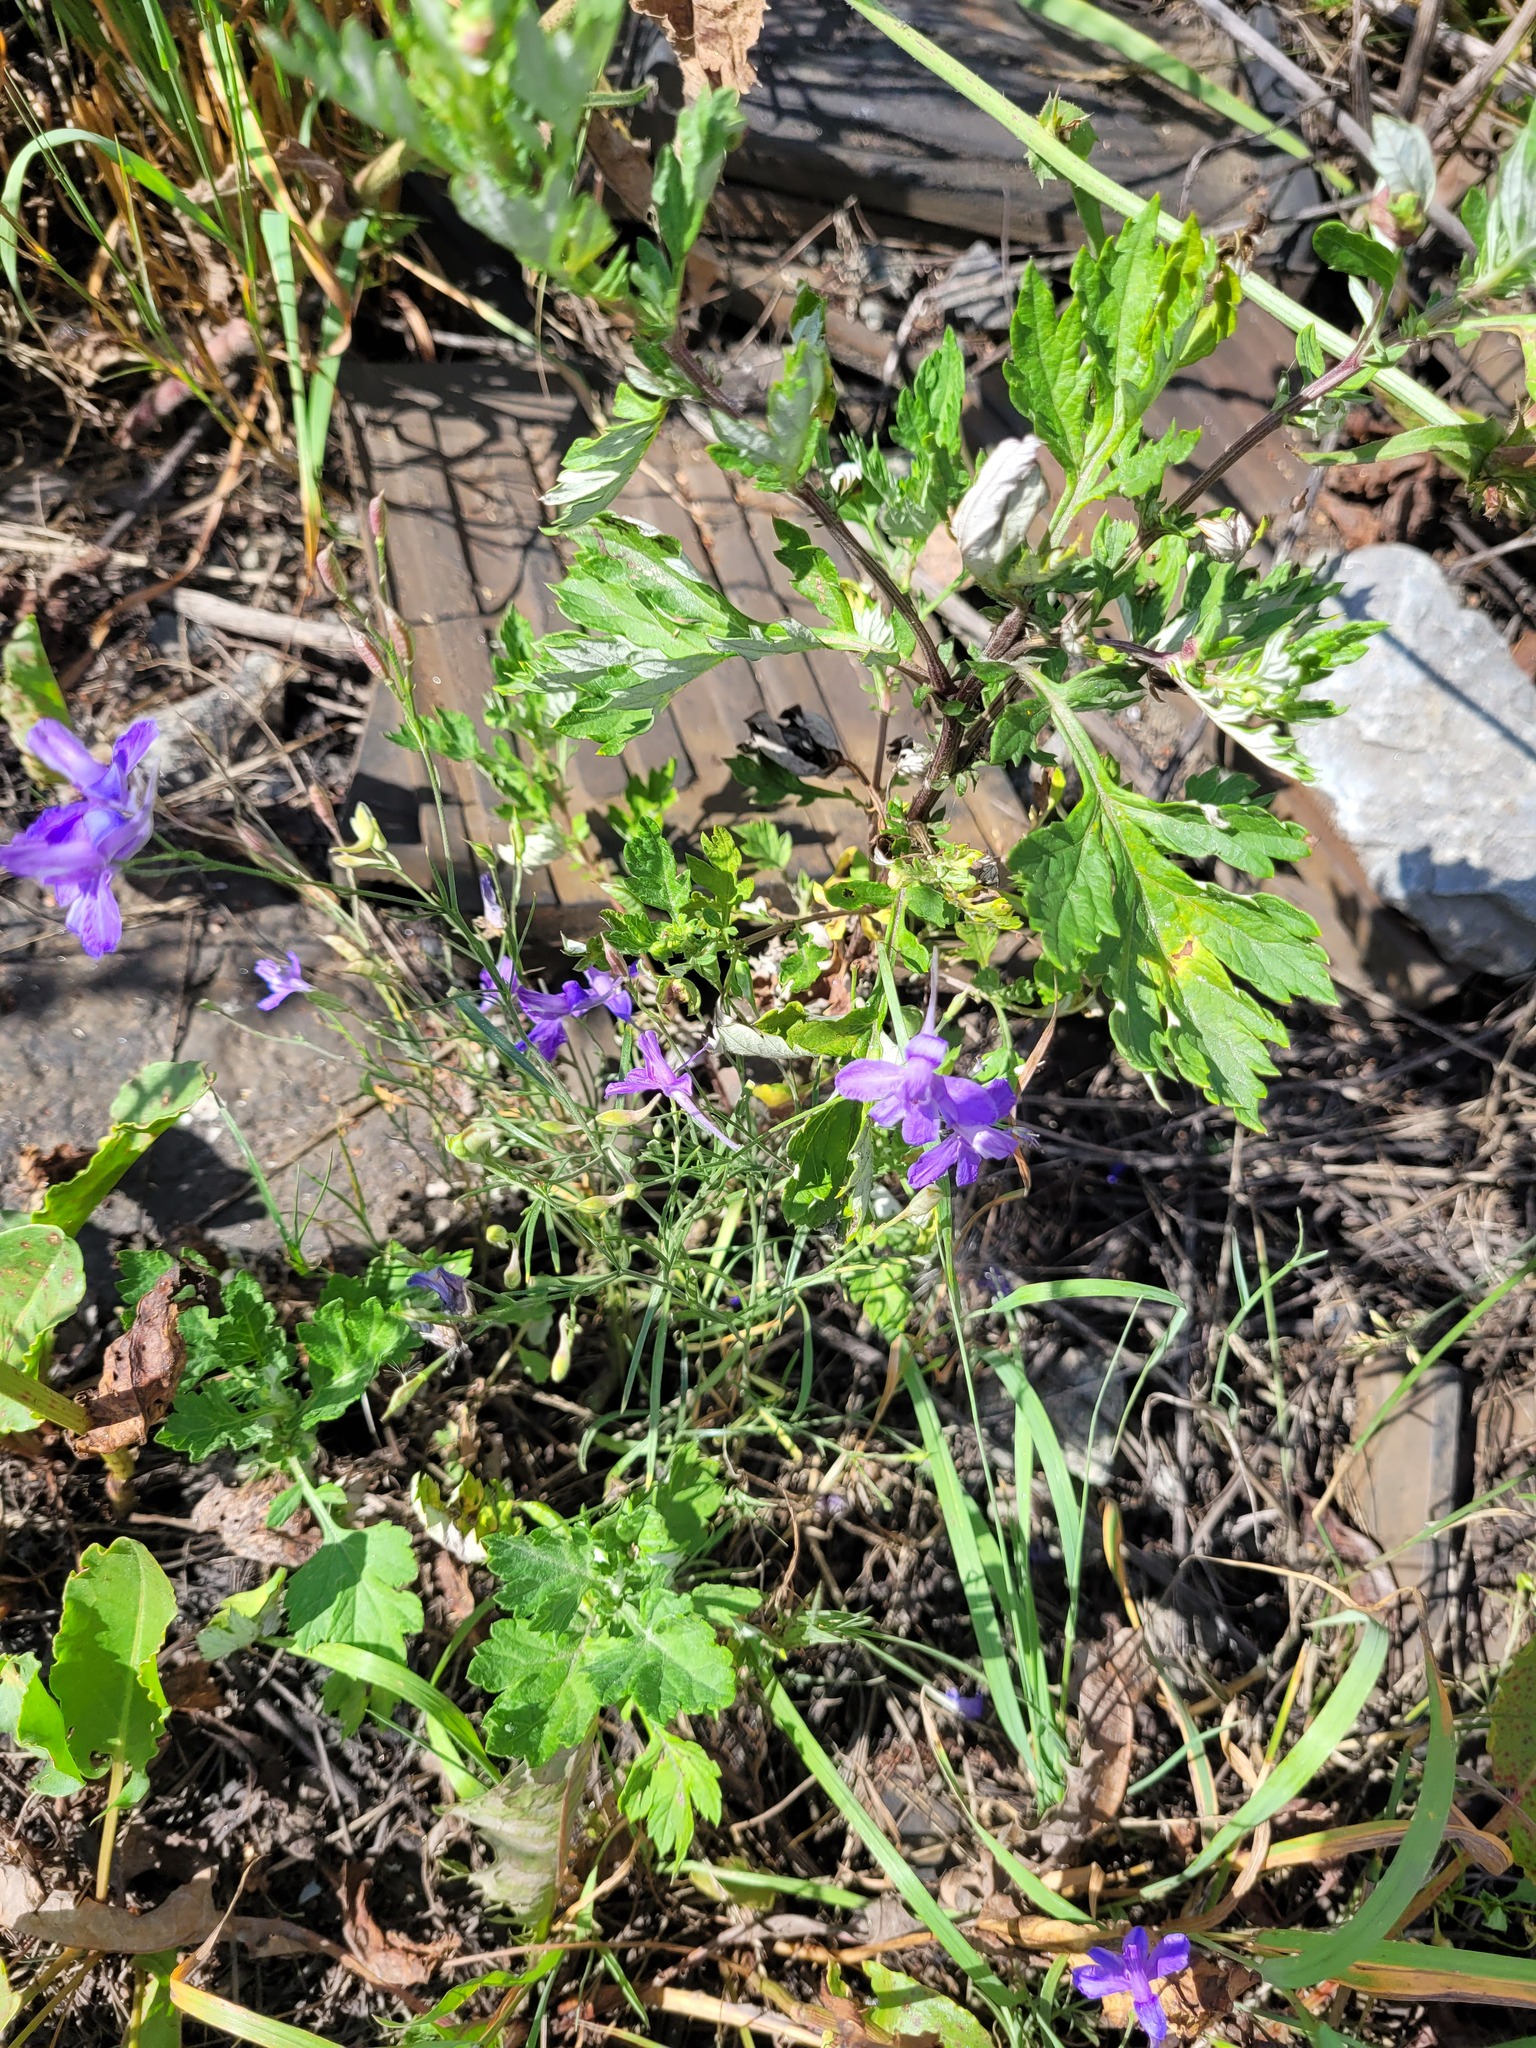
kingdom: Plantae
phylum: Tracheophyta
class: Magnoliopsida
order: Ranunculales
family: Ranunculaceae
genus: Delphinium
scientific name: Delphinium consolida
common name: Branching larkspur
